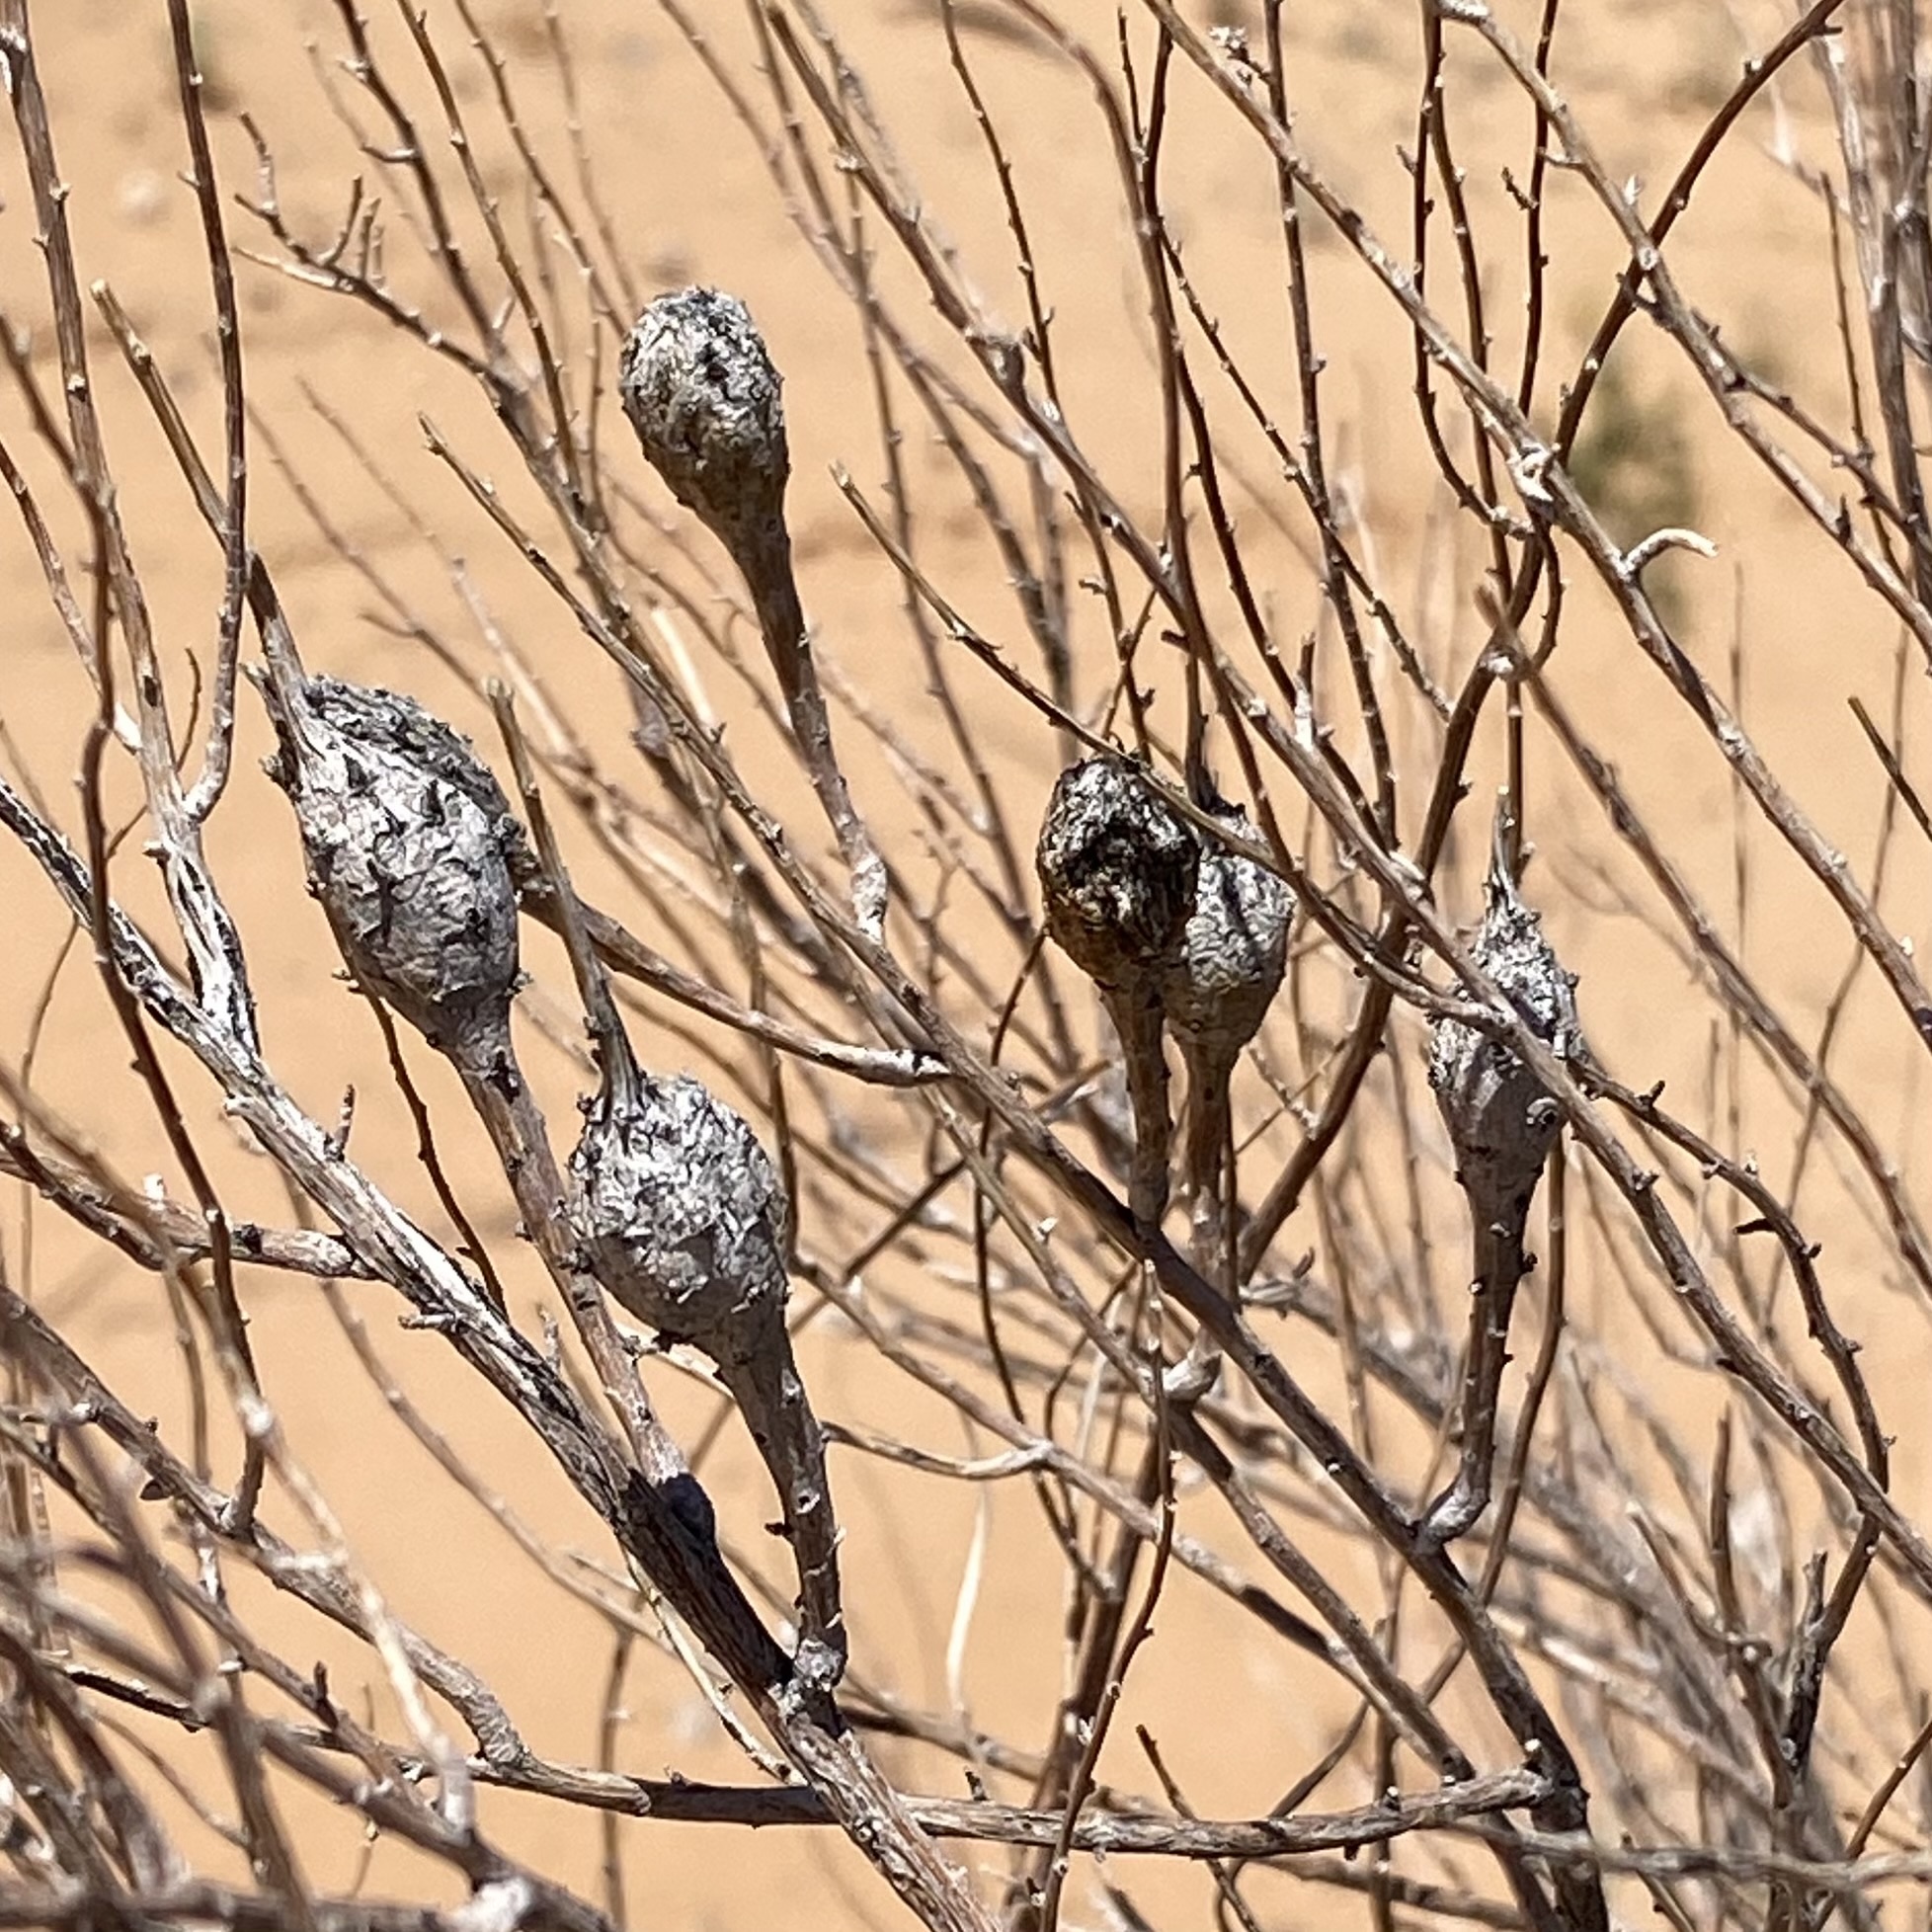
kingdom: Animalia
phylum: Arthropoda
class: Insecta
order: Diptera
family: Tephritidae
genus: Eutreta
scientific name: Eutreta diana
